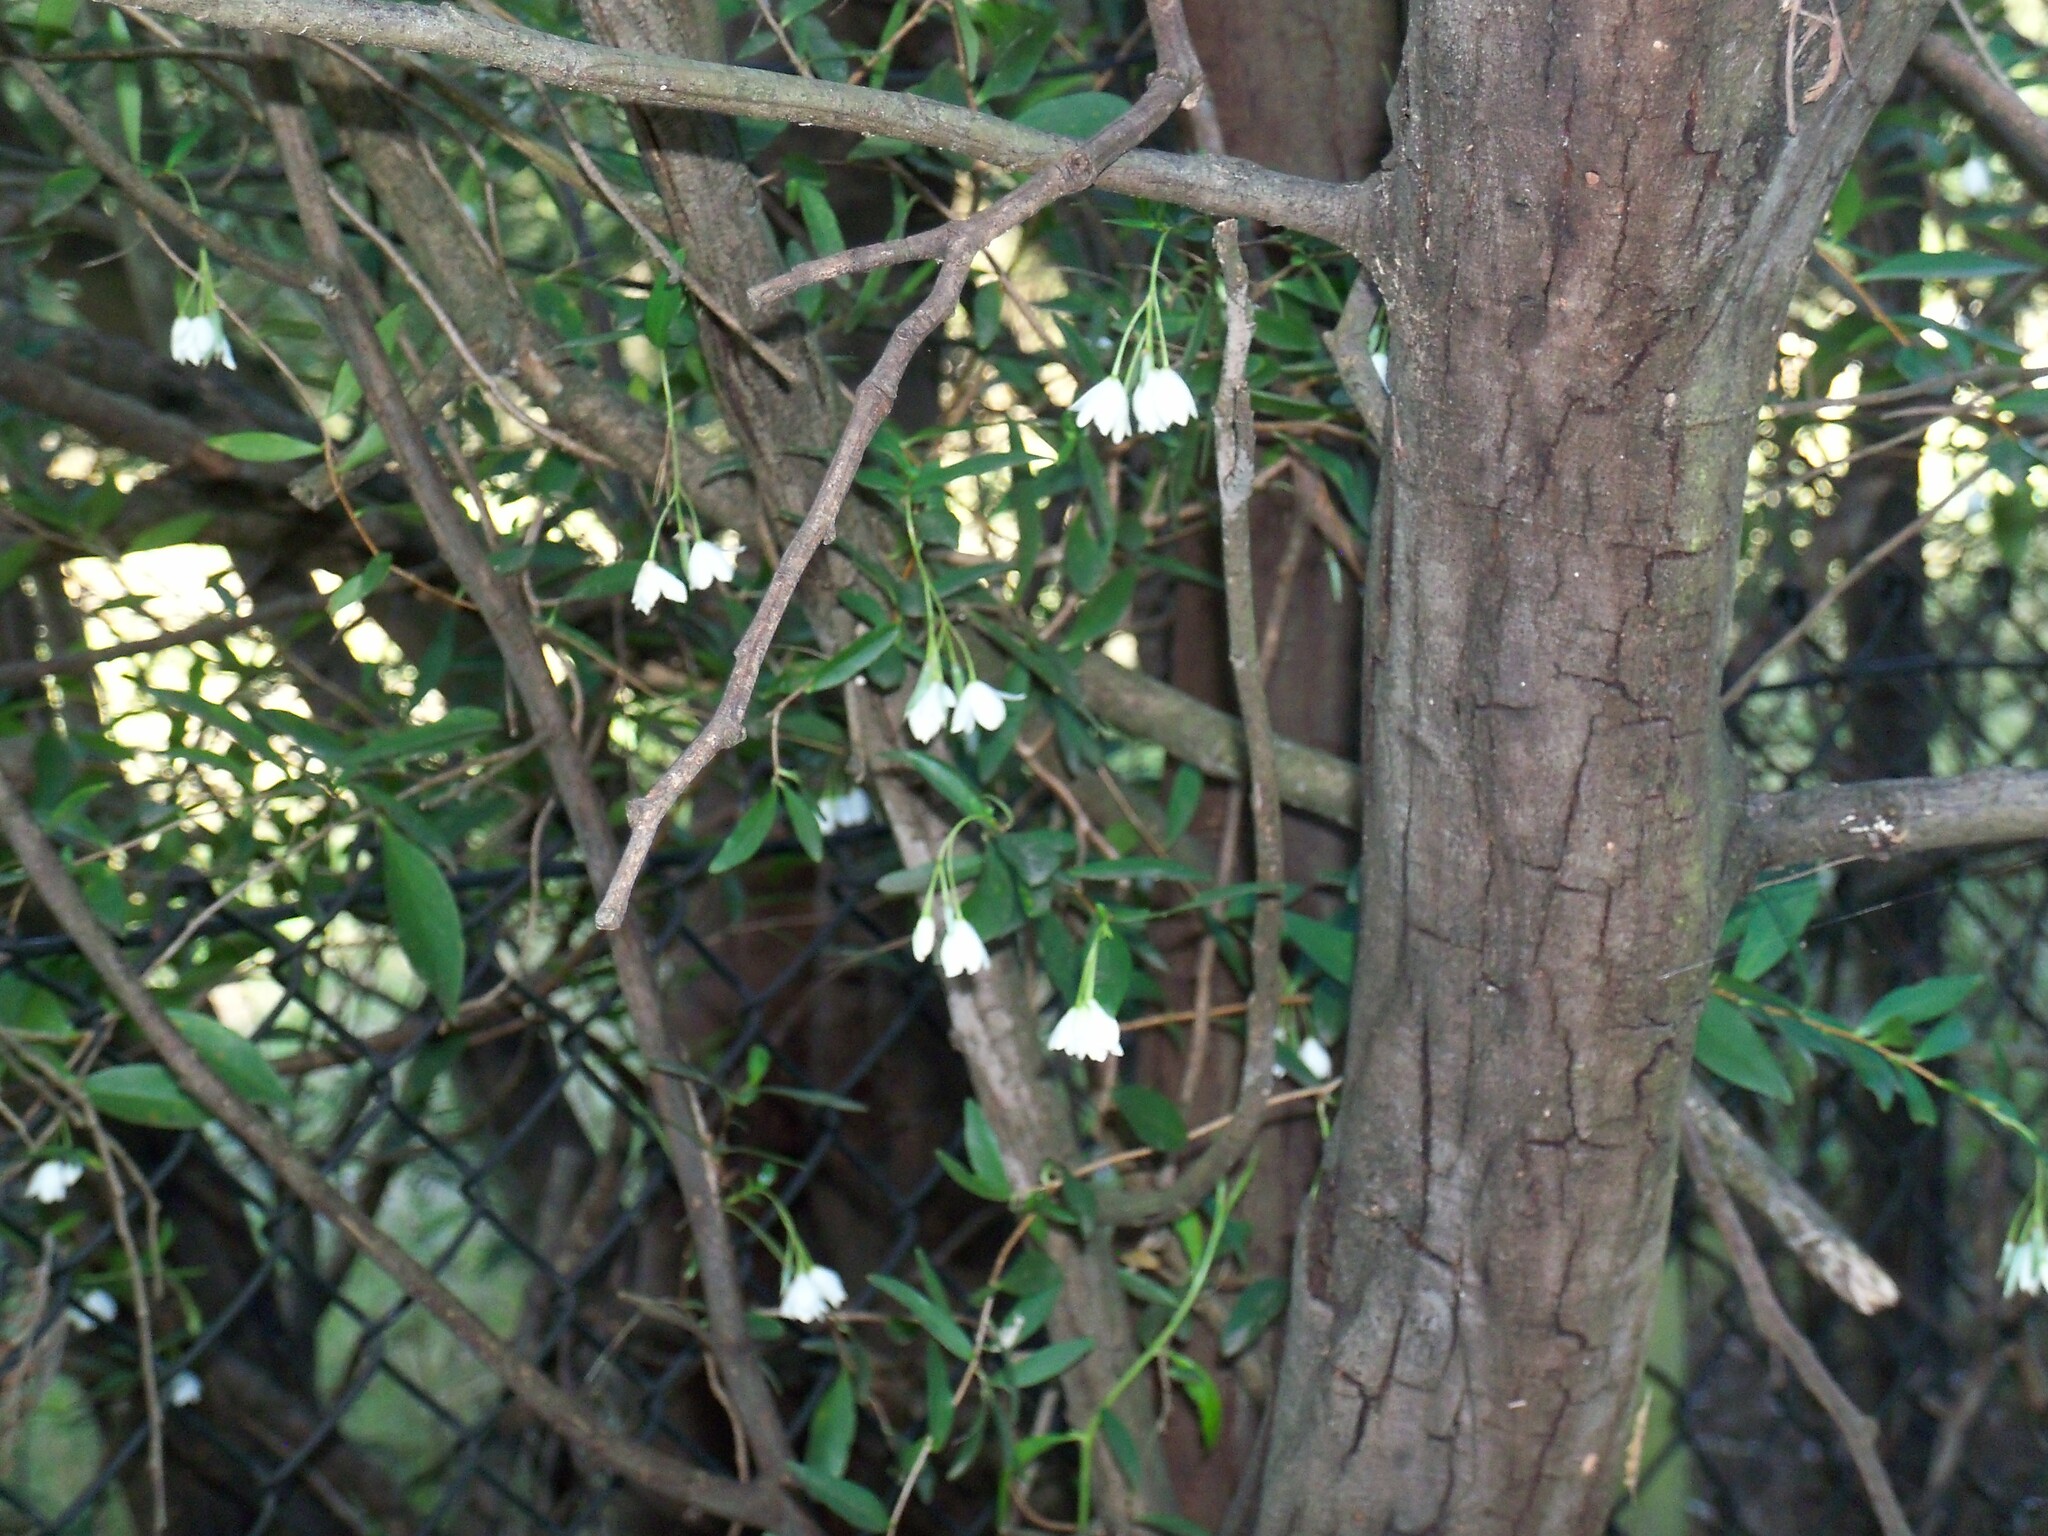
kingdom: Plantae
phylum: Tracheophyta
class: Magnoliopsida
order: Apiales
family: Pittosporaceae
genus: Billardiera
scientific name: Billardiera fusiformis
